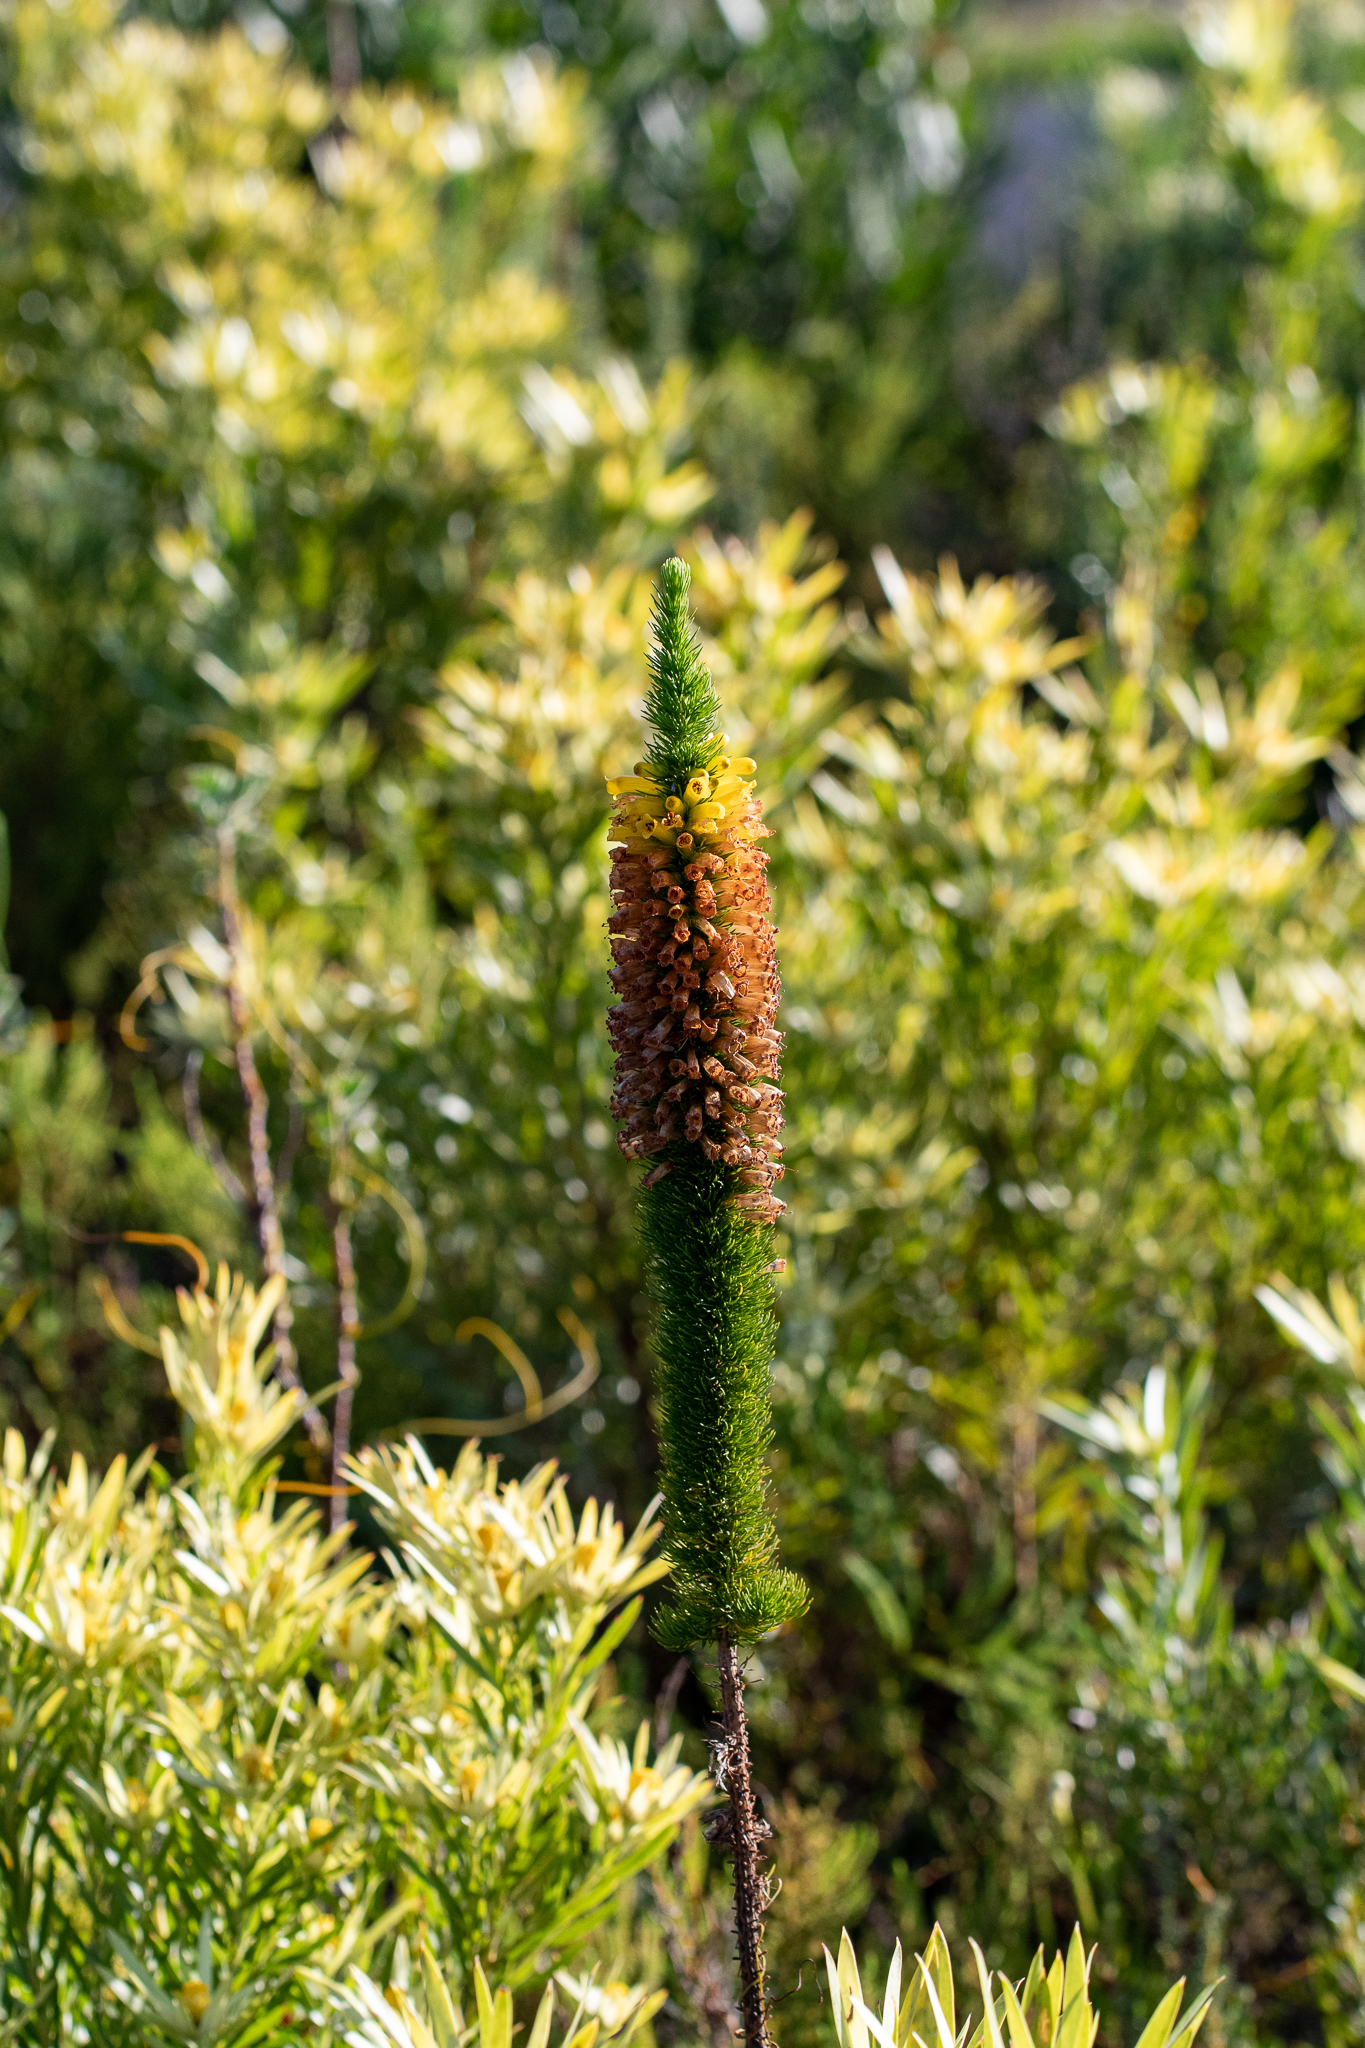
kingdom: Plantae
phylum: Tracheophyta
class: Magnoliopsida
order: Ericales
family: Ericaceae
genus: Erica
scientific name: Erica patersonia
